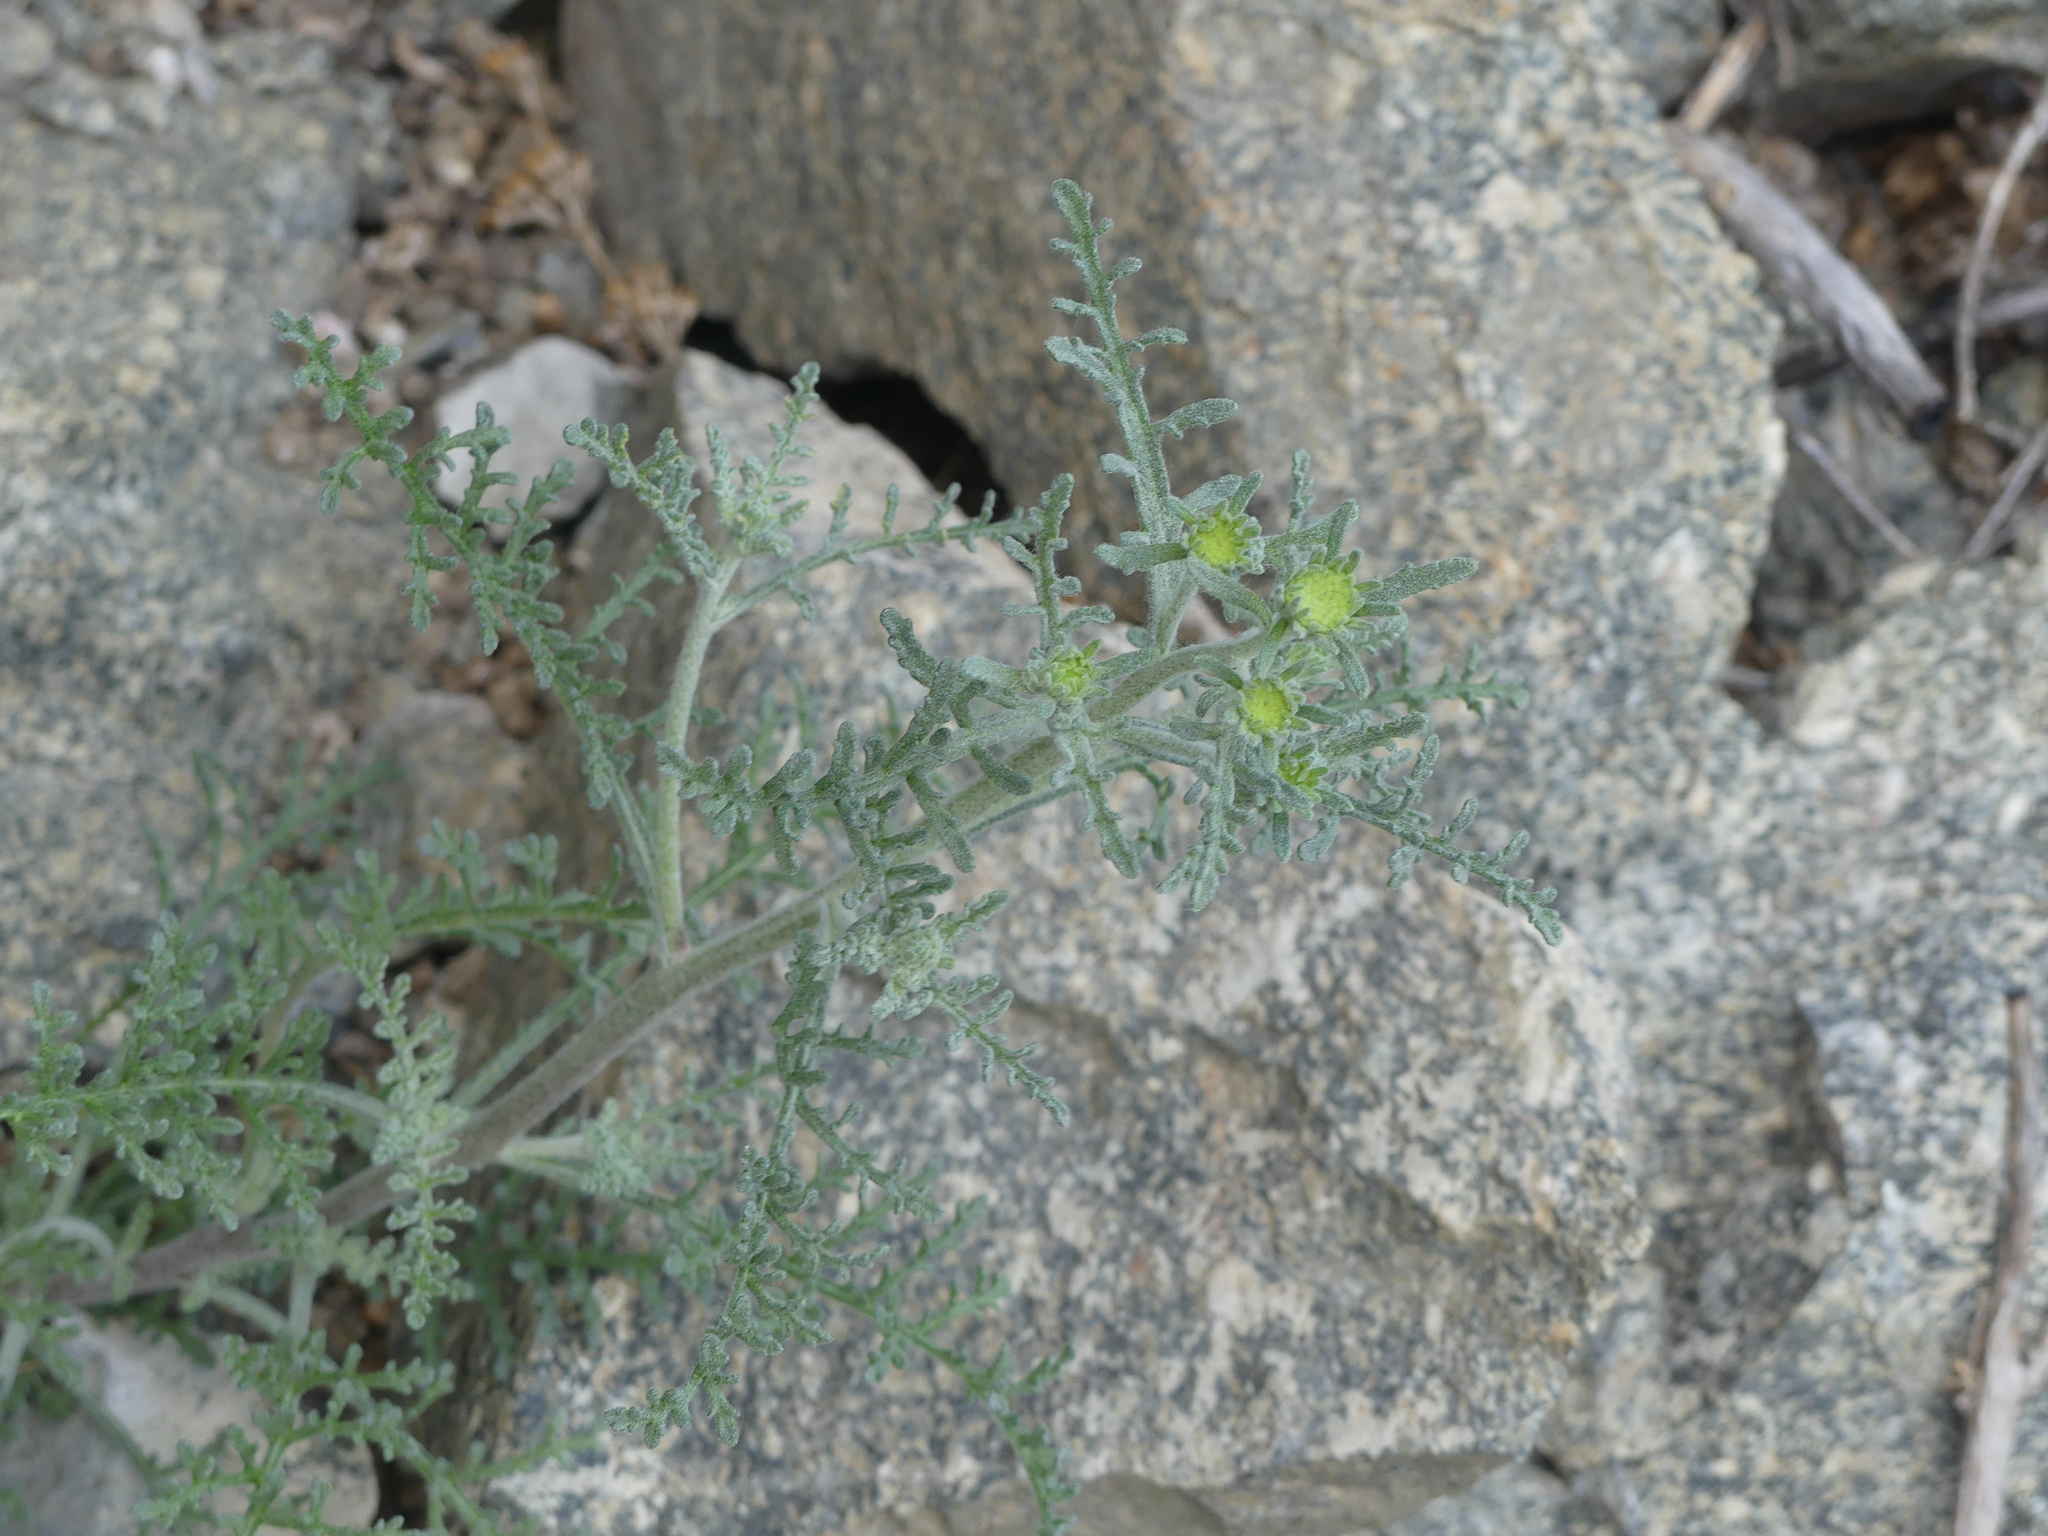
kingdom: Plantae
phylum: Tracheophyta
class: Magnoliopsida
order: Asterales
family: Asteraceae
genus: Chaenactis
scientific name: Chaenactis douglasii
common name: Hoary pincushion
